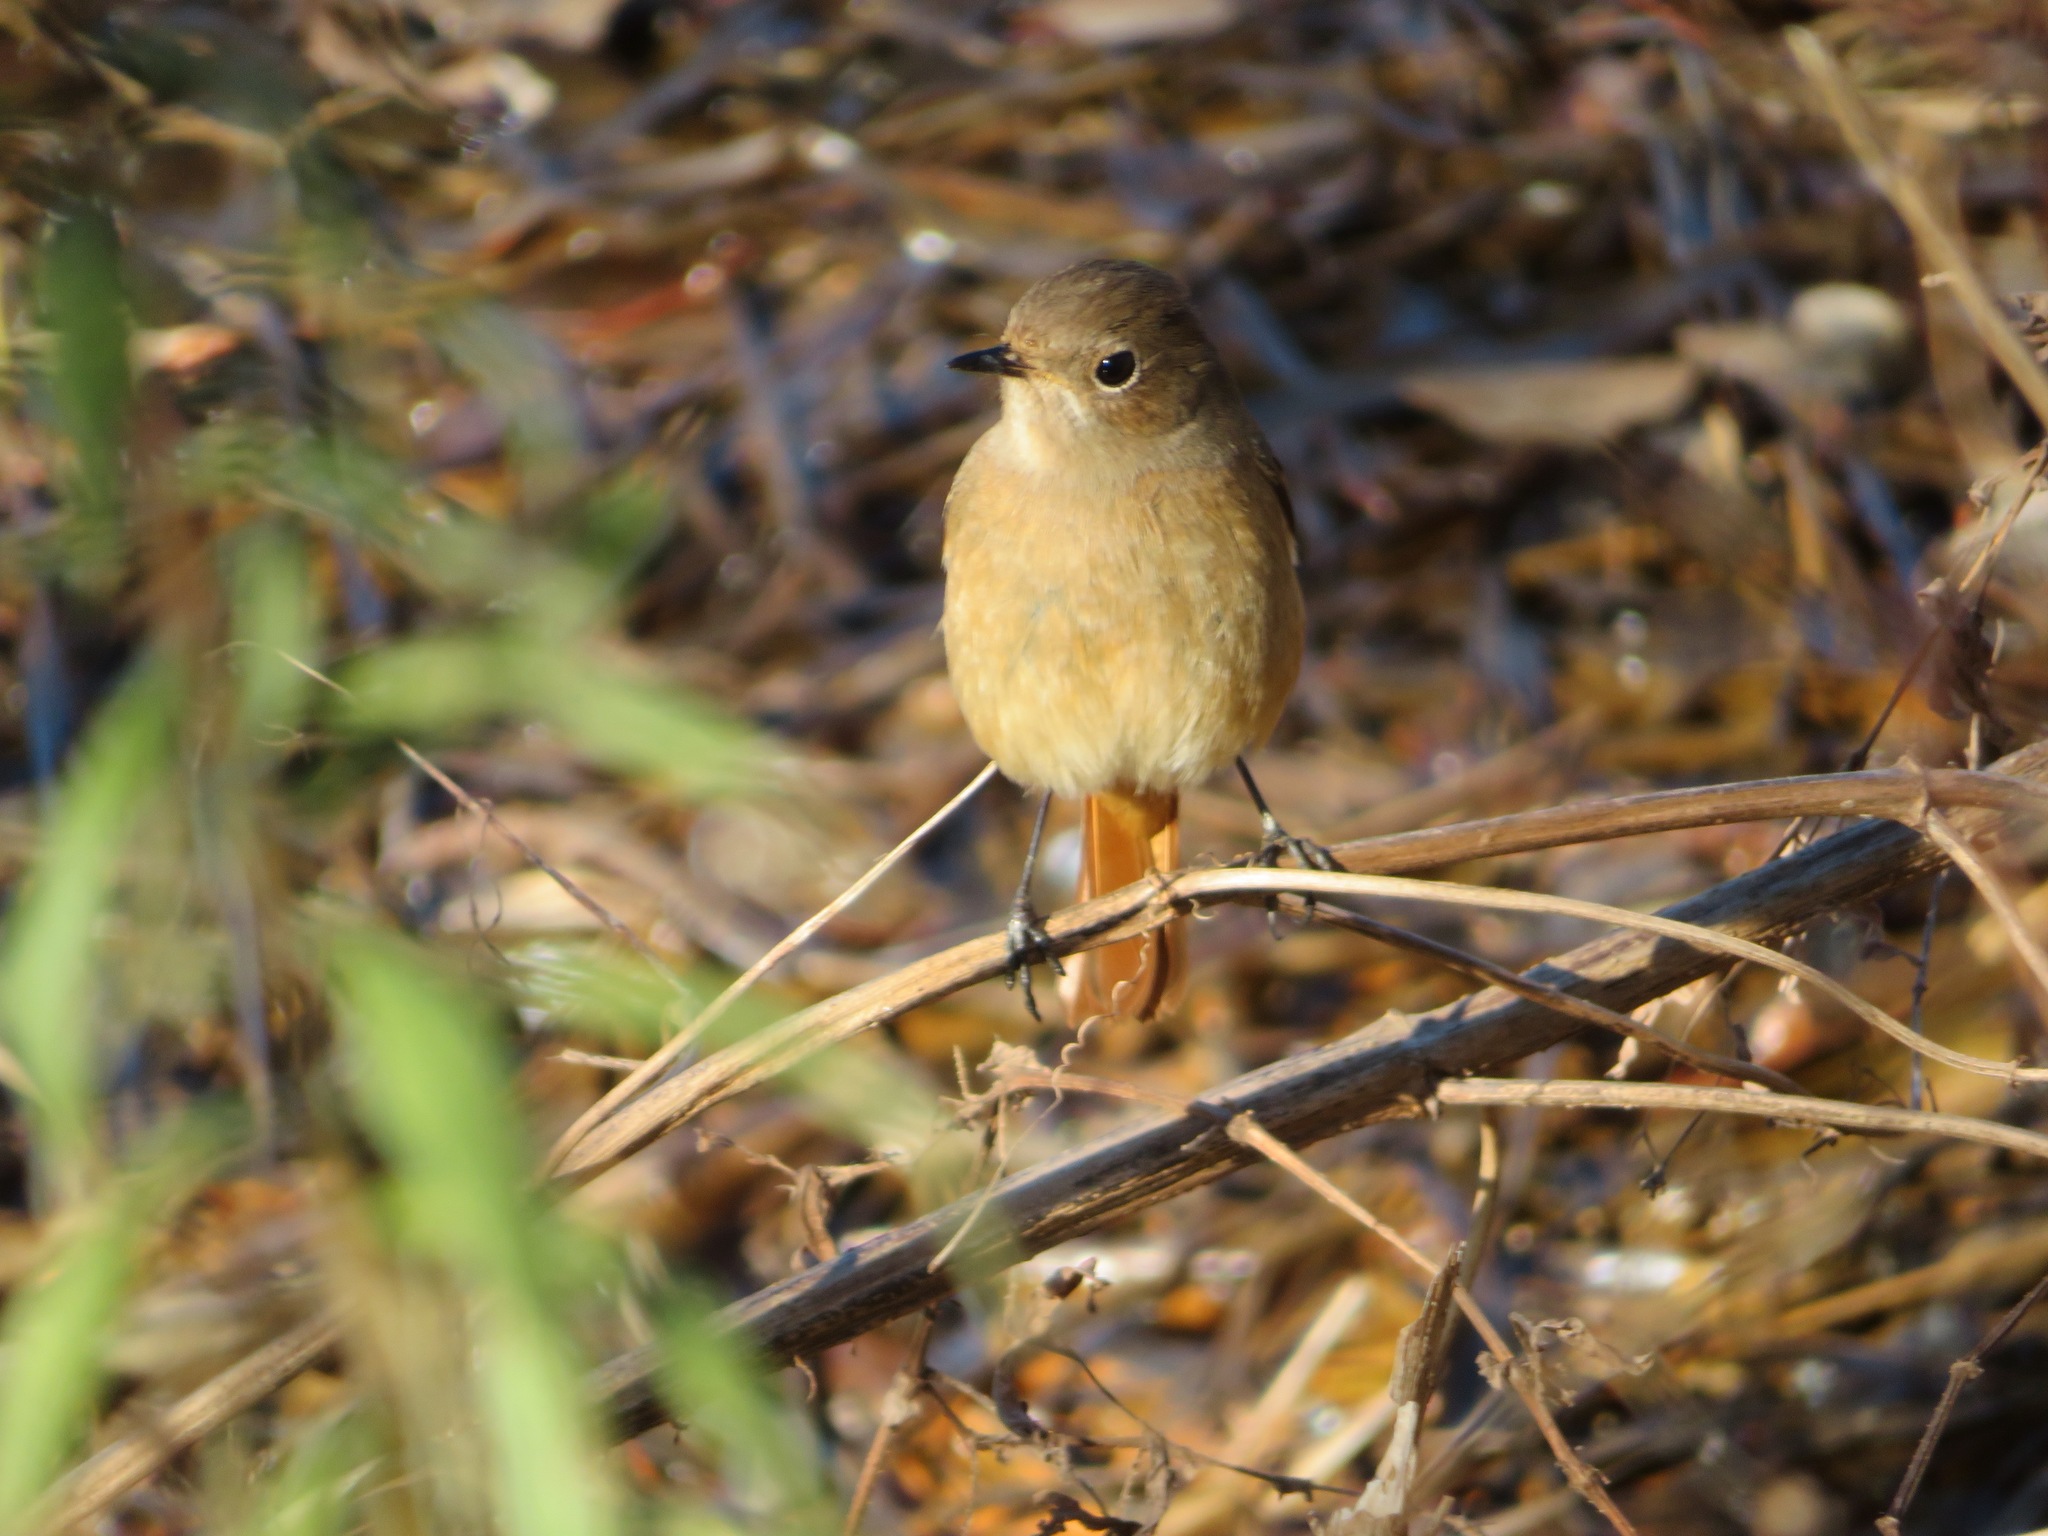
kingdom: Animalia
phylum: Chordata
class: Aves
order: Passeriformes
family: Muscicapidae
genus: Phoenicurus
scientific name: Phoenicurus auroreus
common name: Daurian redstart
